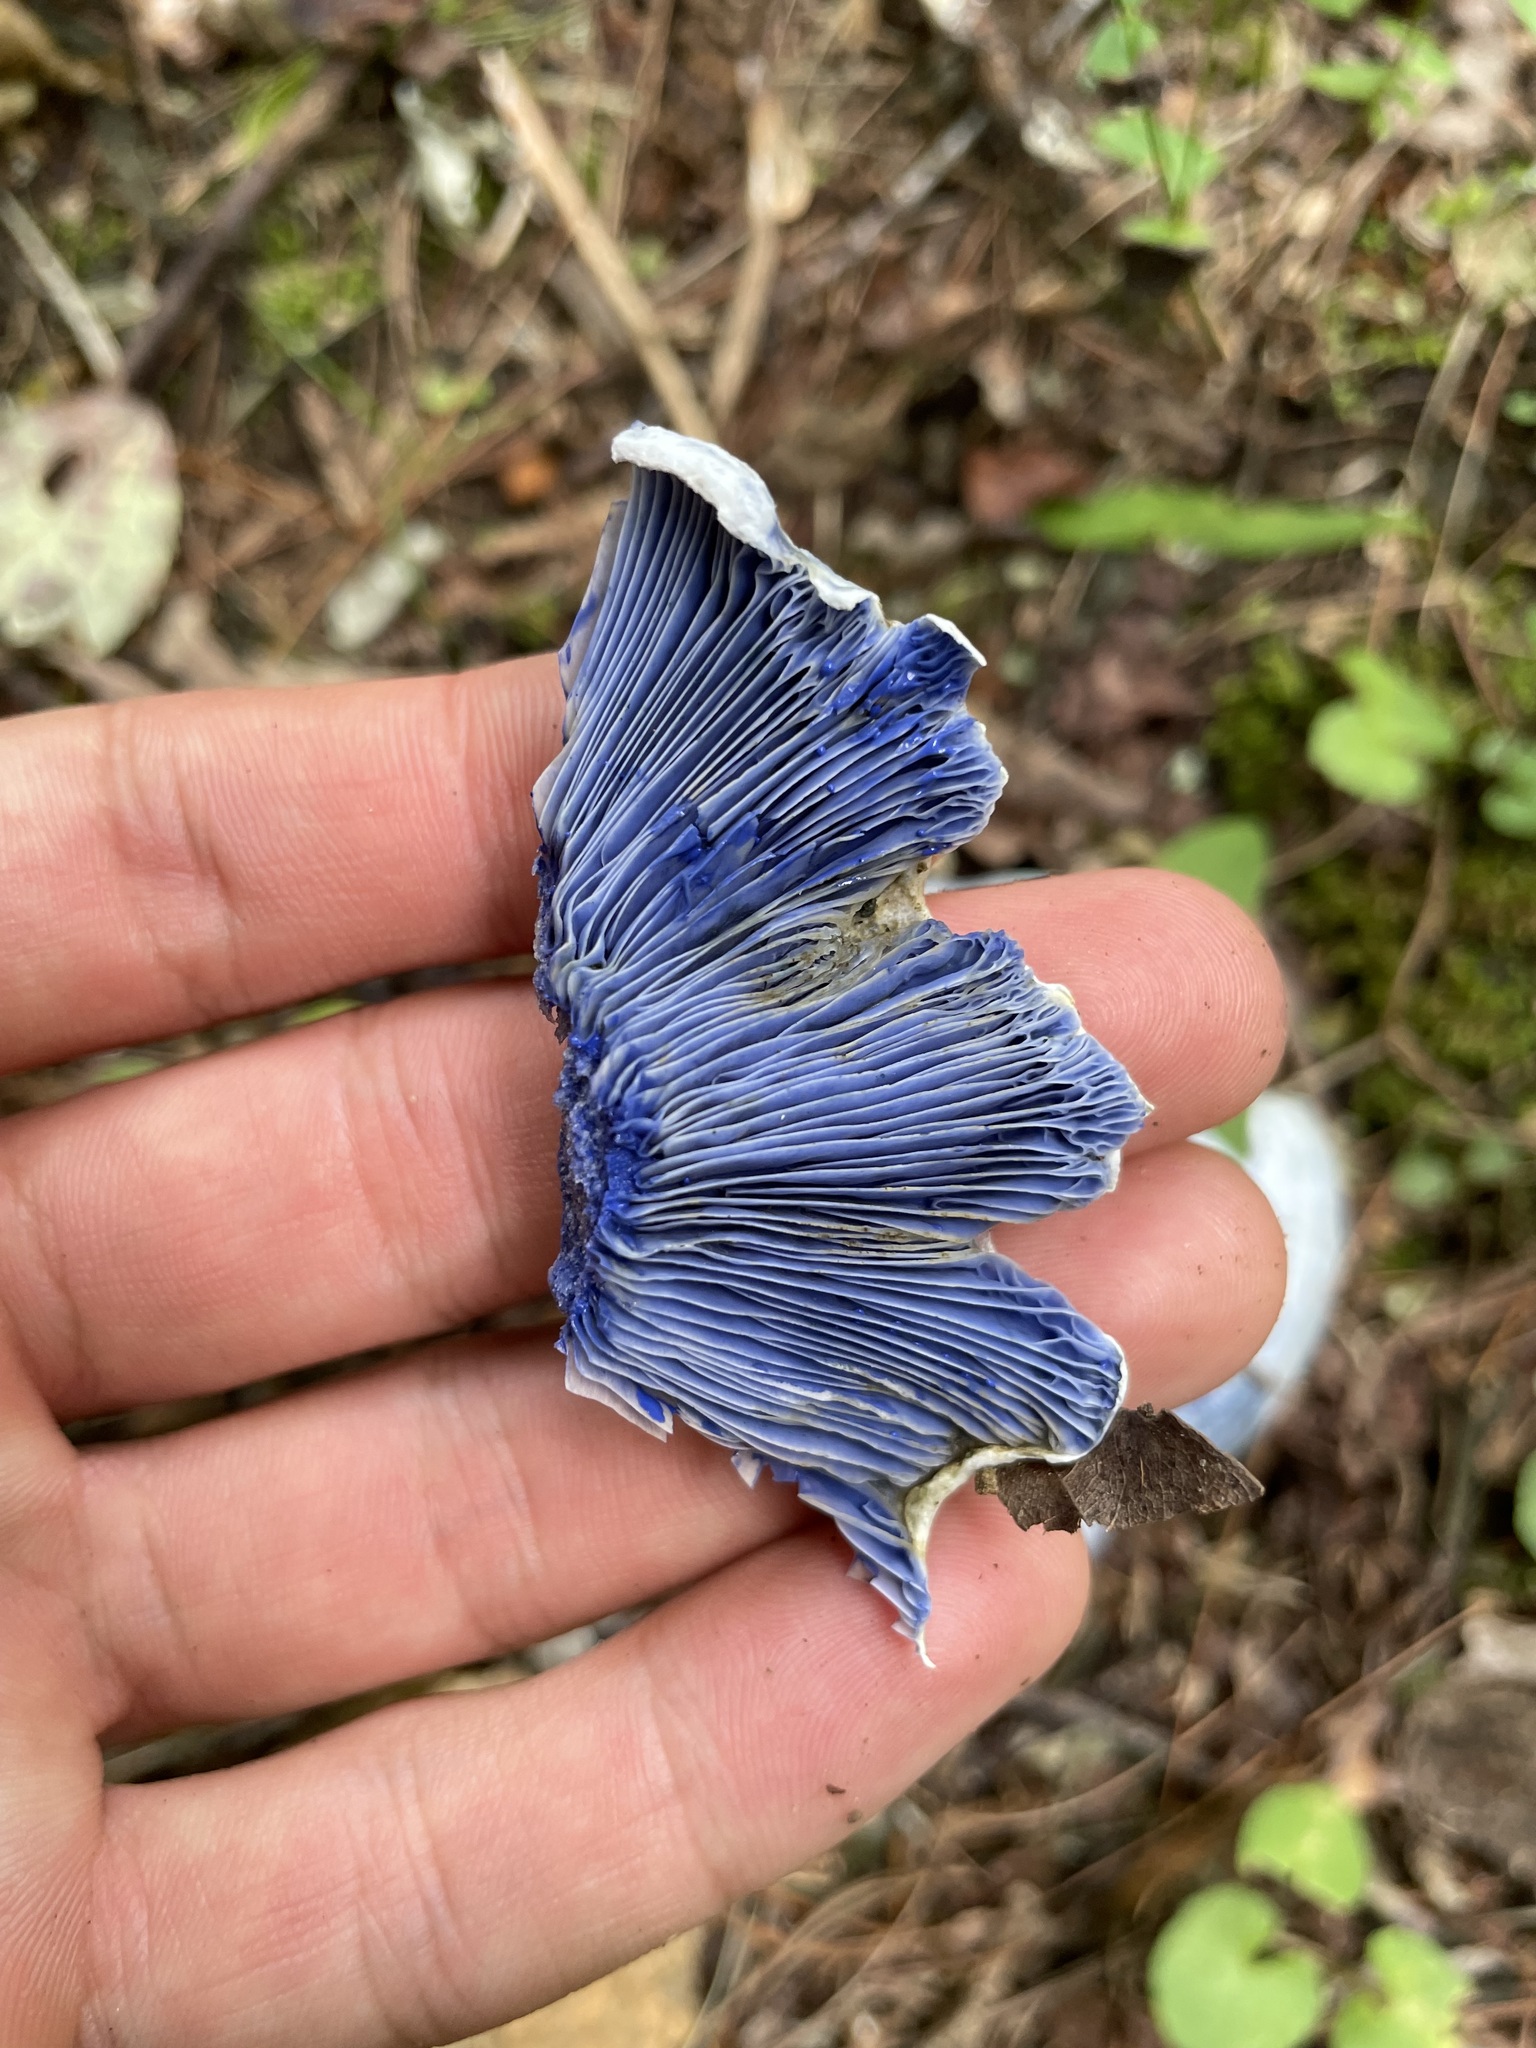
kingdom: Fungi
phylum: Basidiomycota
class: Agaricomycetes
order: Russulales
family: Russulaceae
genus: Lactarius
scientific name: Lactarius indigo
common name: Indigo milk cap
